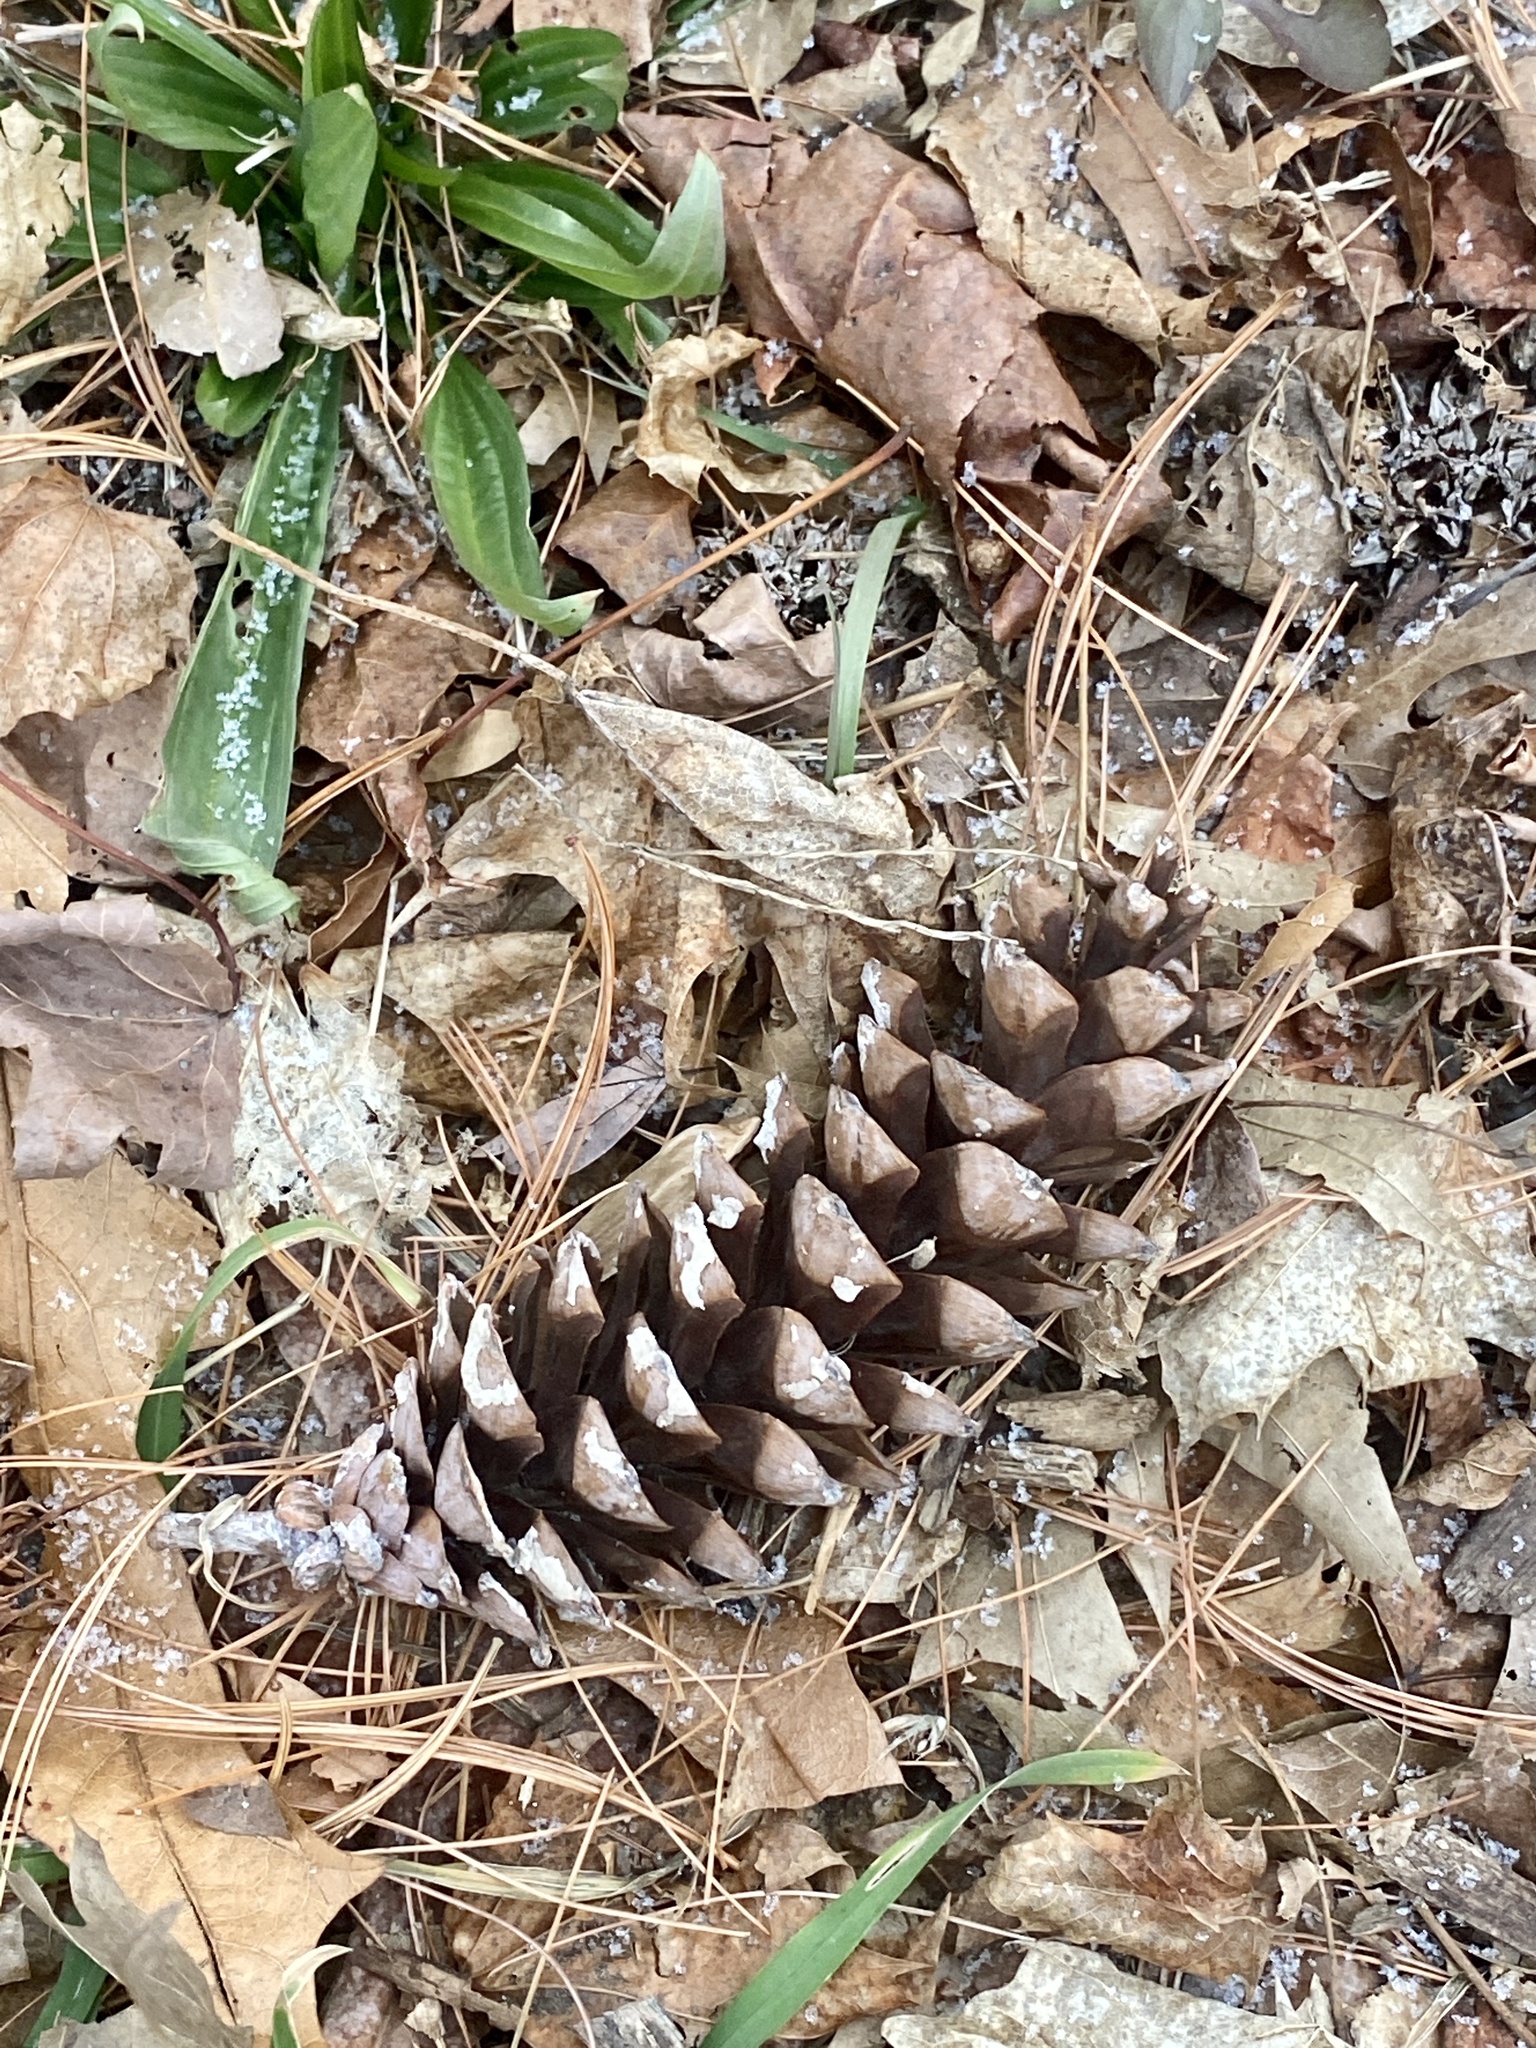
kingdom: Plantae
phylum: Tracheophyta
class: Pinopsida
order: Pinales
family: Pinaceae
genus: Pinus
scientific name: Pinus strobus
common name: Weymouth pine
